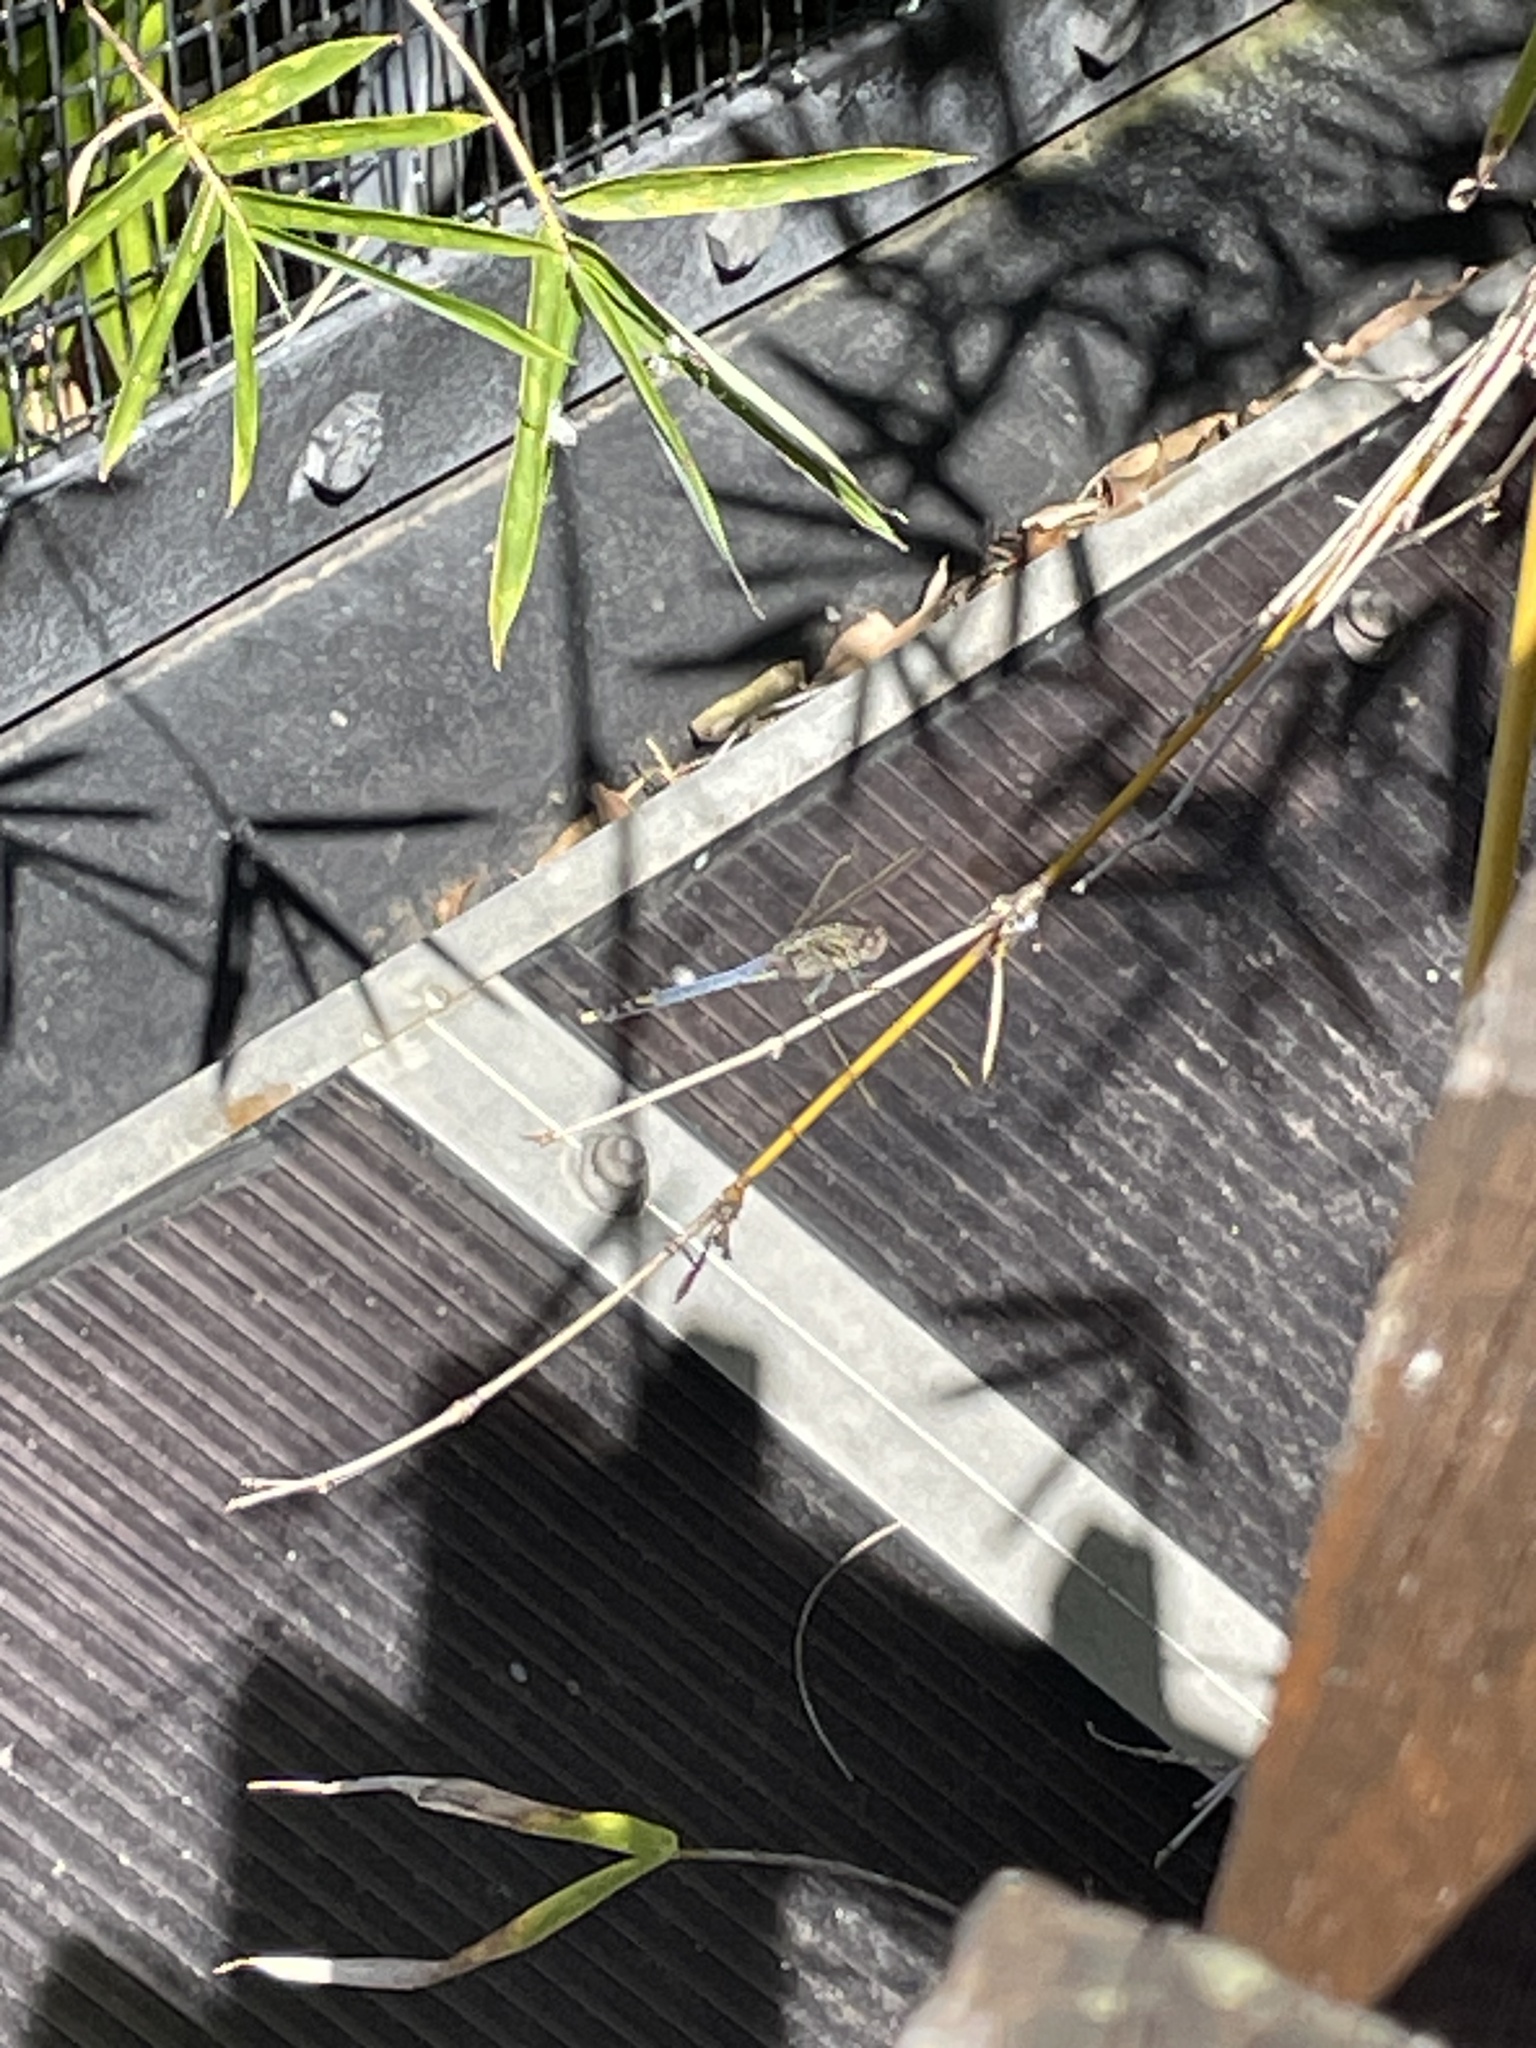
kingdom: Animalia
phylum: Arthropoda
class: Insecta
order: Odonata
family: Libellulidae
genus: Orthetrum
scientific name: Orthetrum caledonicum
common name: Blue skimmer
